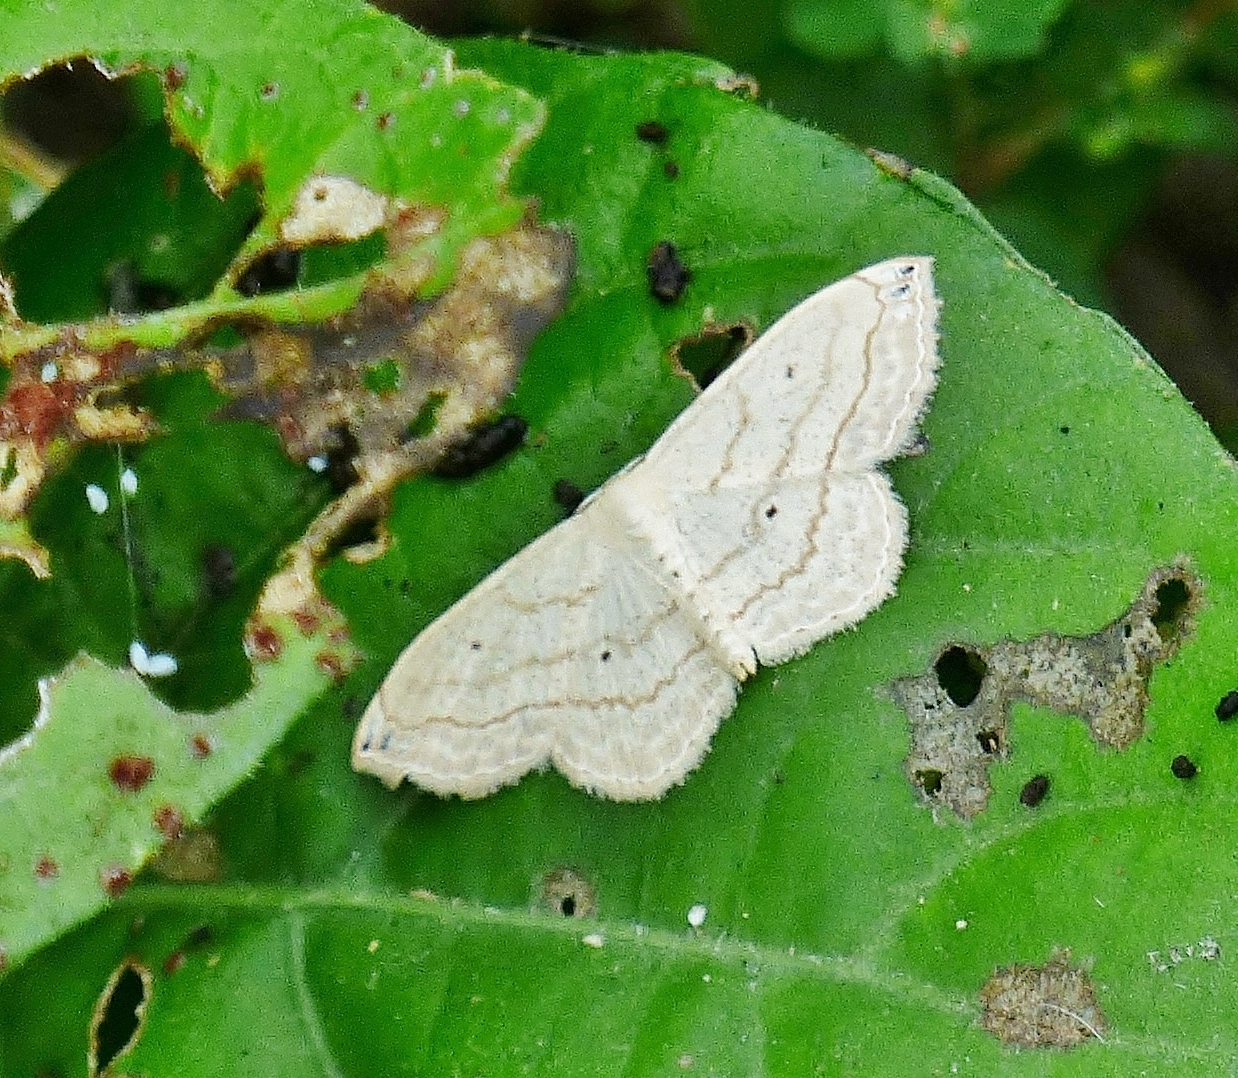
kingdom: Animalia
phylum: Arthropoda
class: Insecta
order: Lepidoptera
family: Geometridae
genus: Scopula
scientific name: Scopula umbilicata
